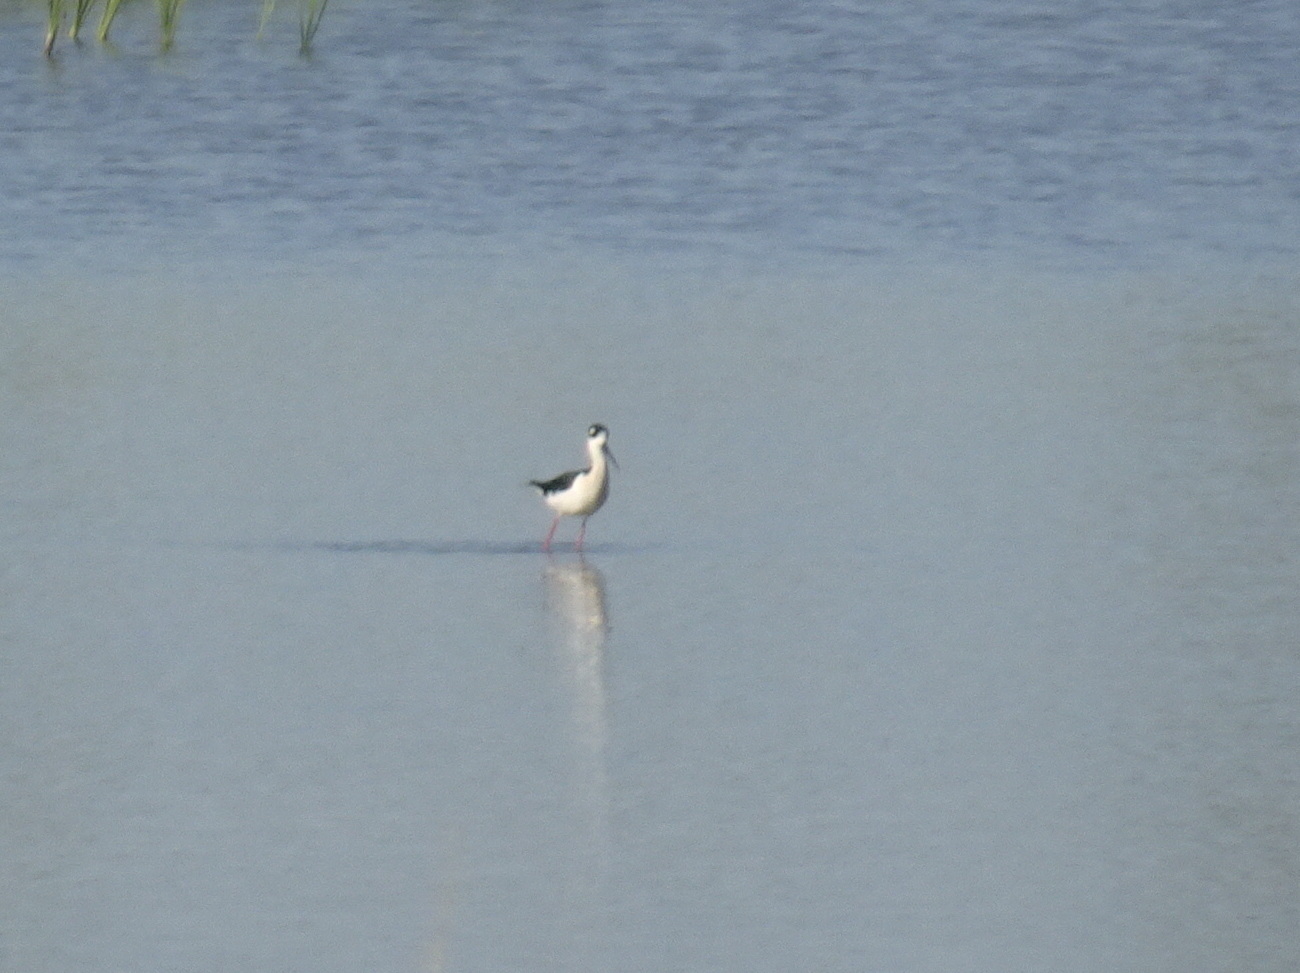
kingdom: Animalia
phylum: Chordata
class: Aves
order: Charadriiformes
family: Recurvirostridae
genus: Himantopus
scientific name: Himantopus mexicanus
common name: Black-necked stilt
